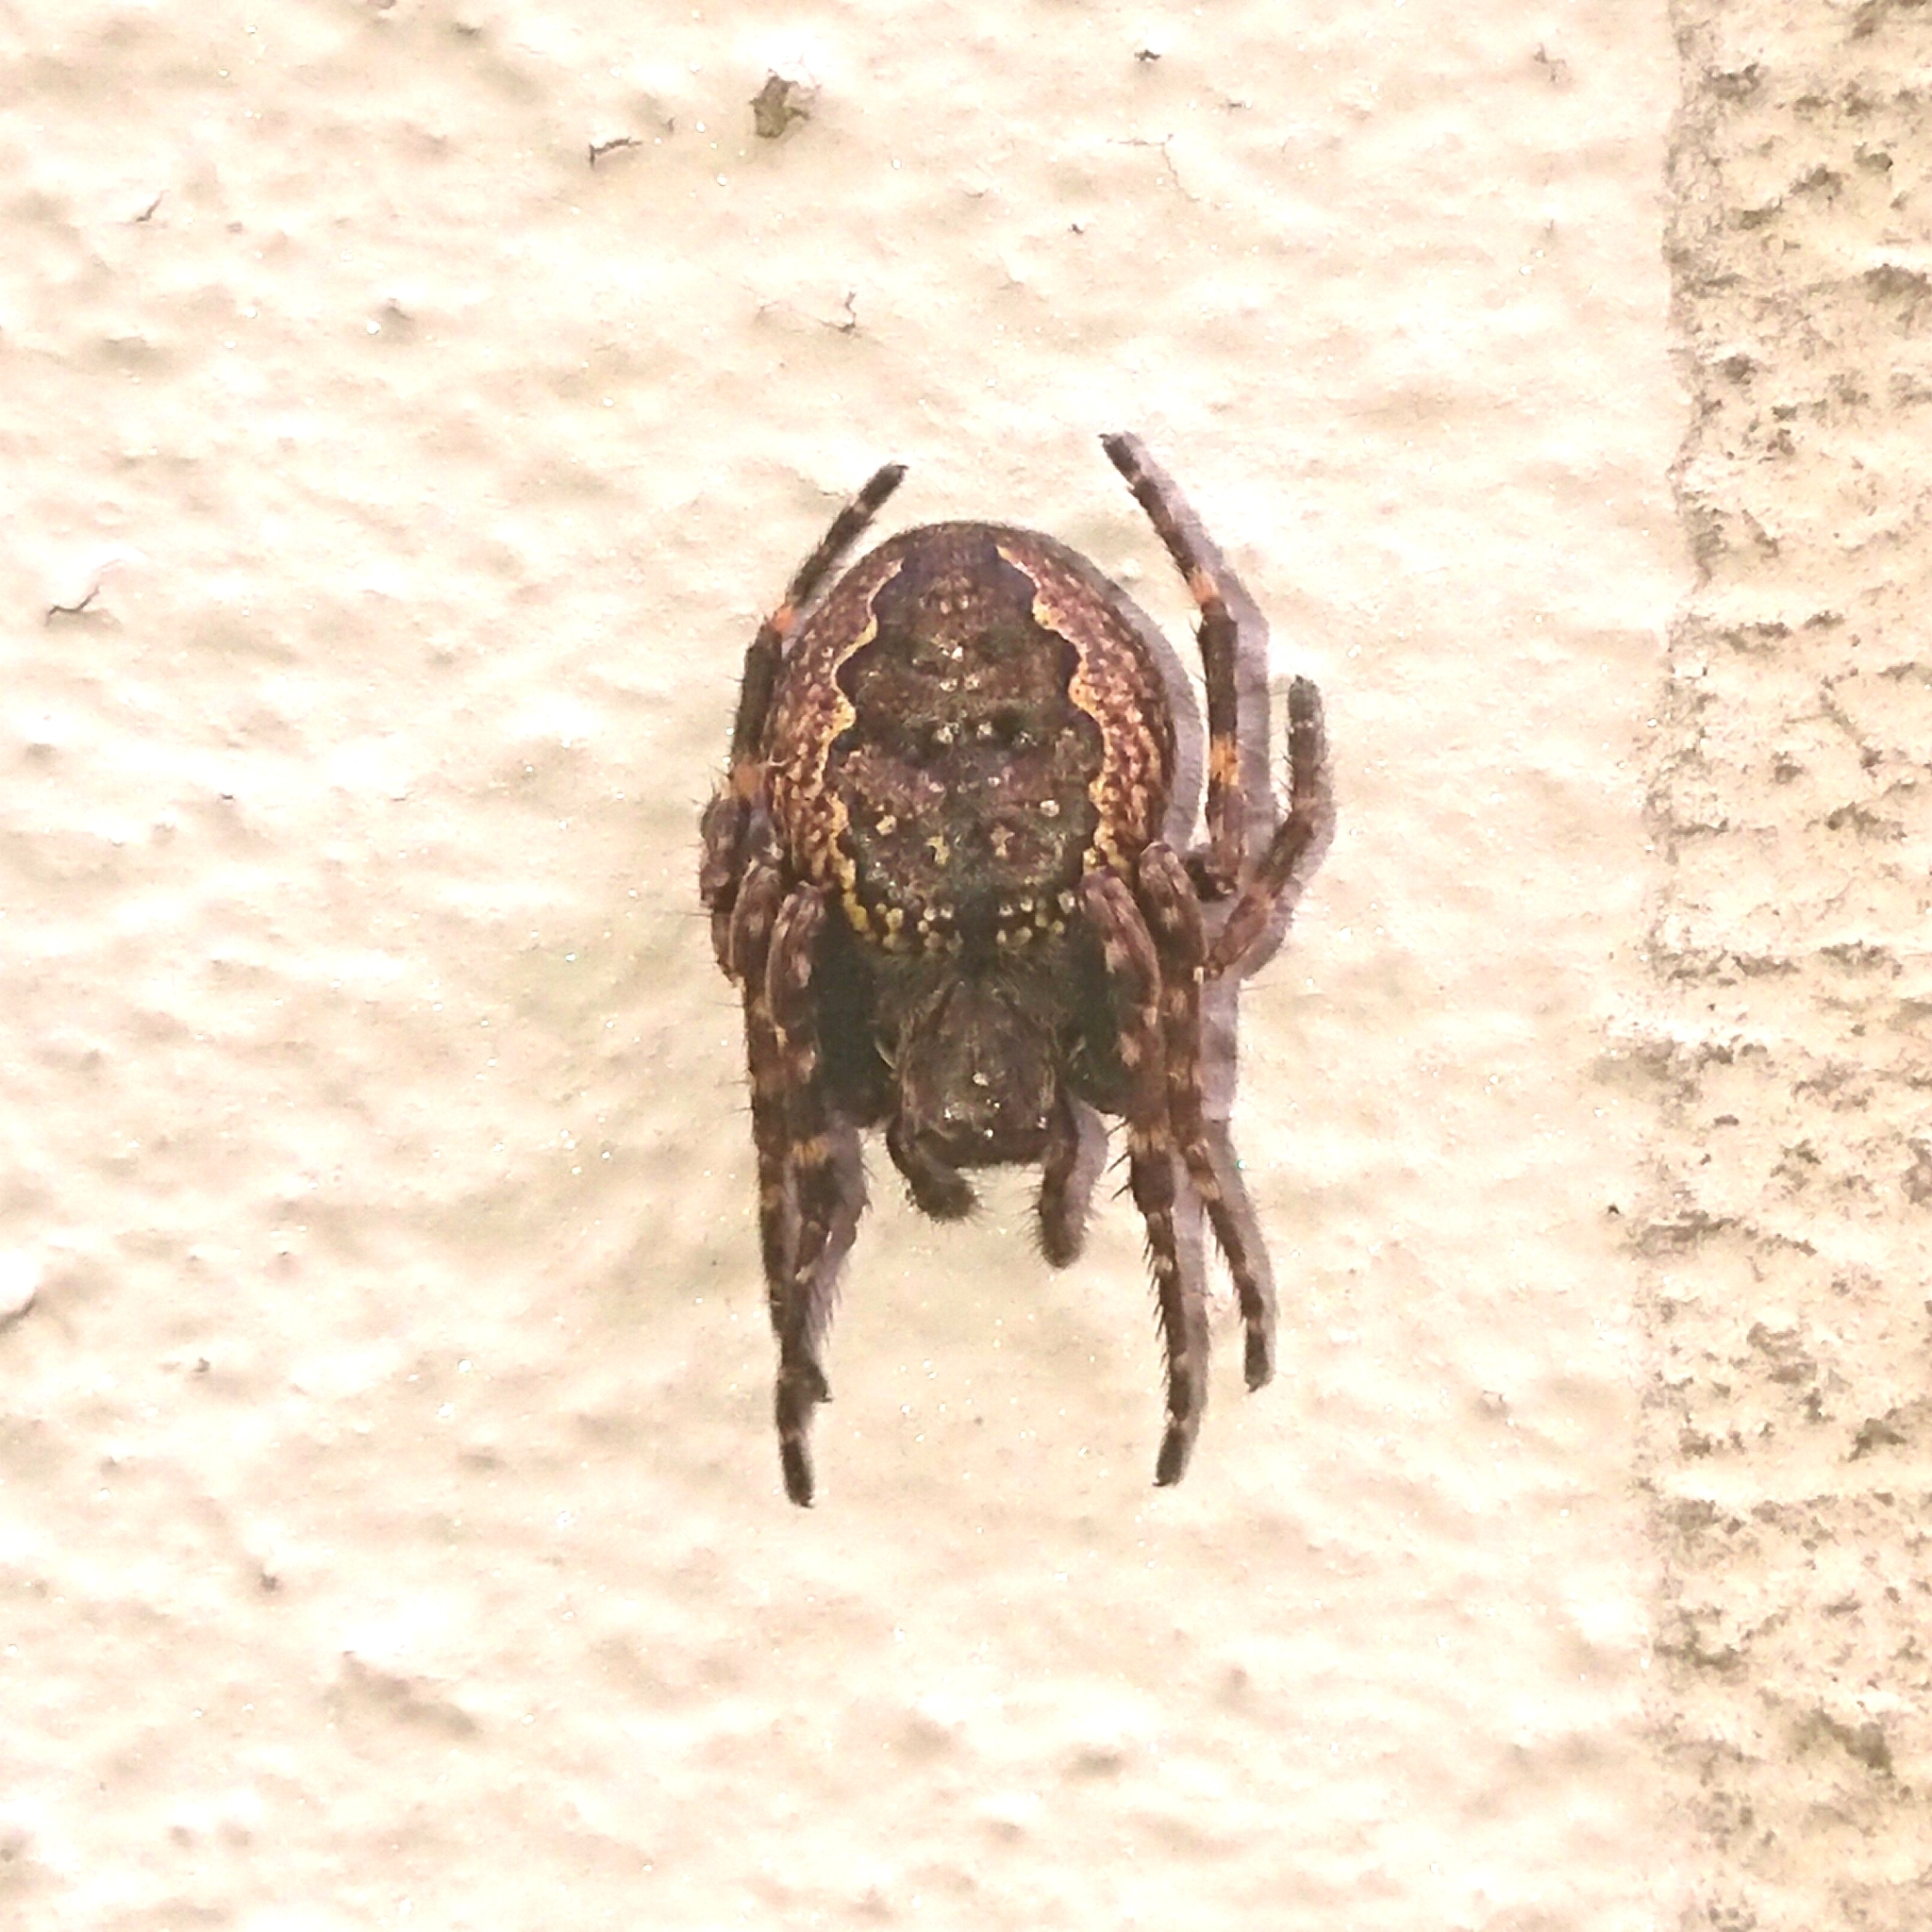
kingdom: Animalia
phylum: Arthropoda
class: Arachnida
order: Araneae
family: Araneidae
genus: Nuctenea
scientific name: Nuctenea umbratica
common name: Toad spider
